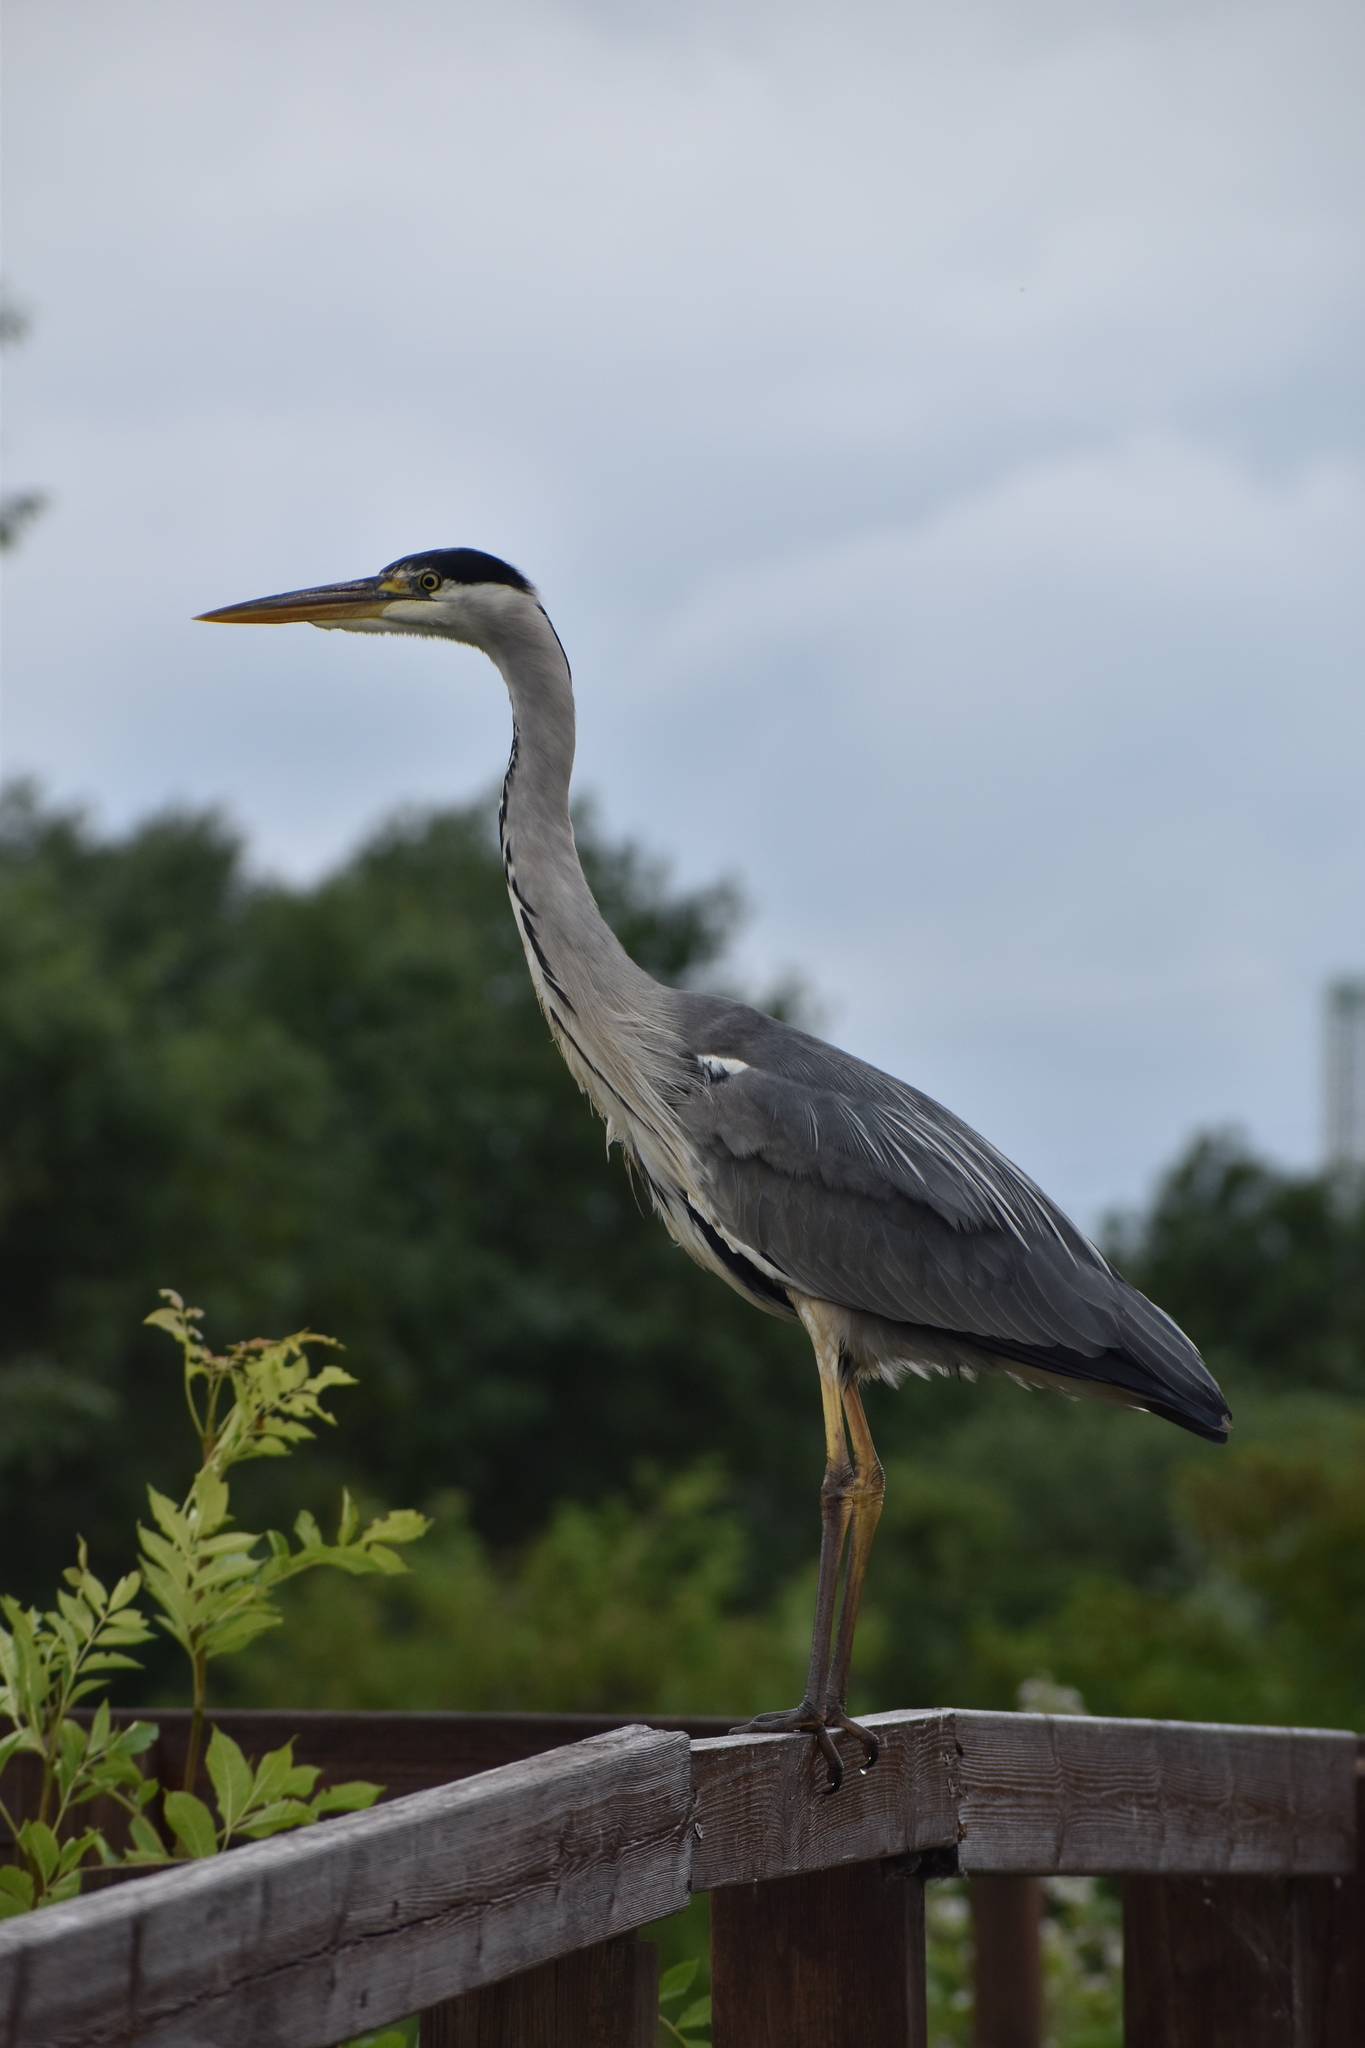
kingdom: Animalia
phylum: Chordata
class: Aves
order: Pelecaniformes
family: Ardeidae
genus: Ardea
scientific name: Ardea cinerea
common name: Grey heron
